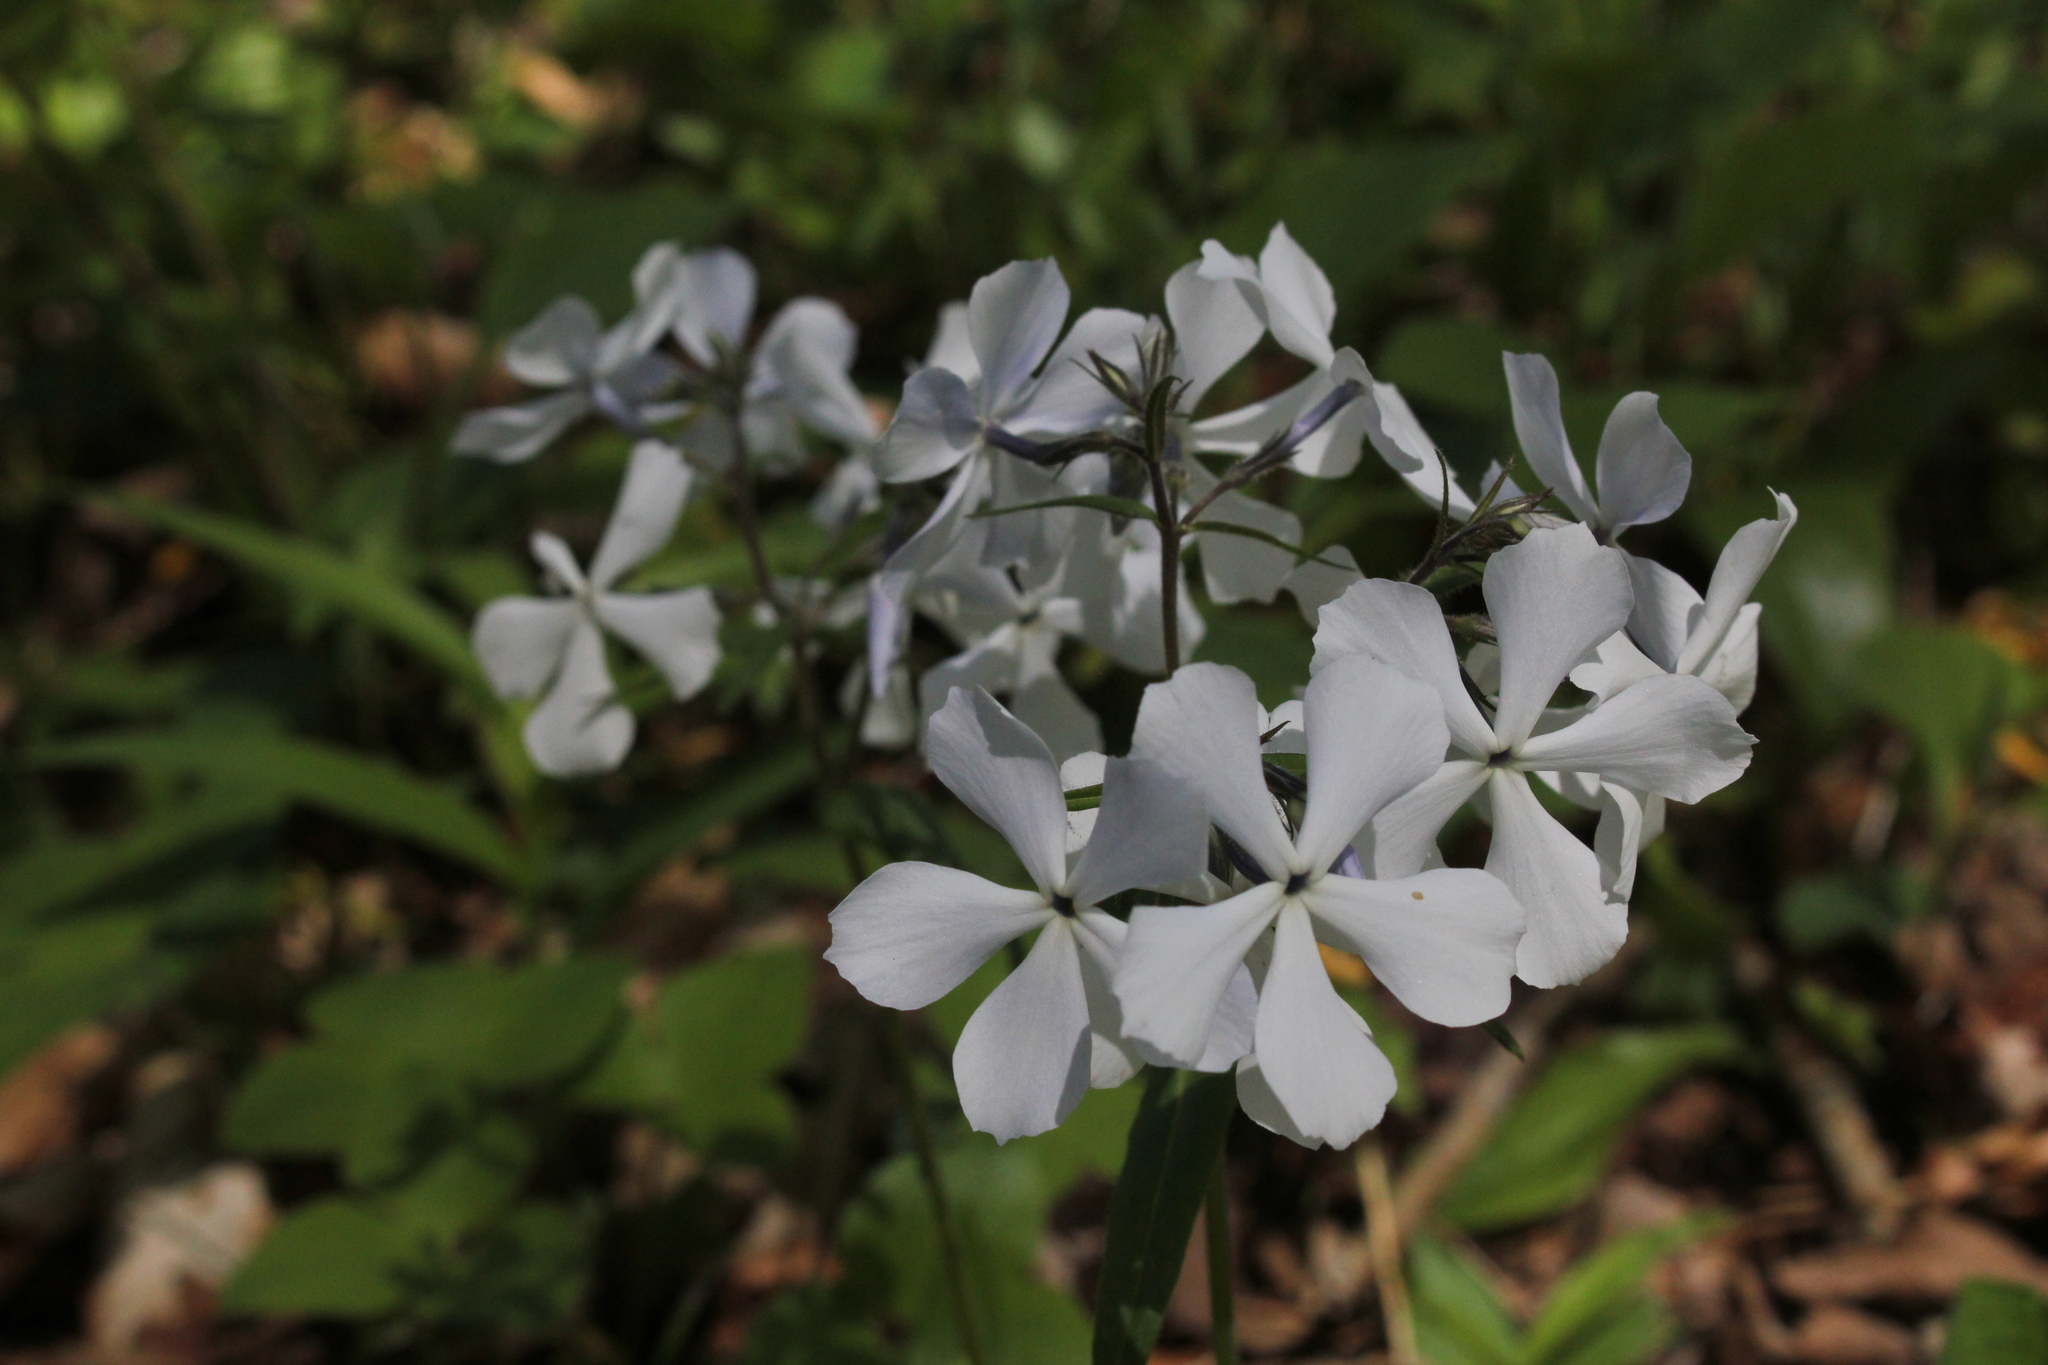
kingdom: Plantae
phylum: Tracheophyta
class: Magnoliopsida
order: Ericales
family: Polemoniaceae
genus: Phlox
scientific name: Phlox divaricata
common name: Blue phlox
